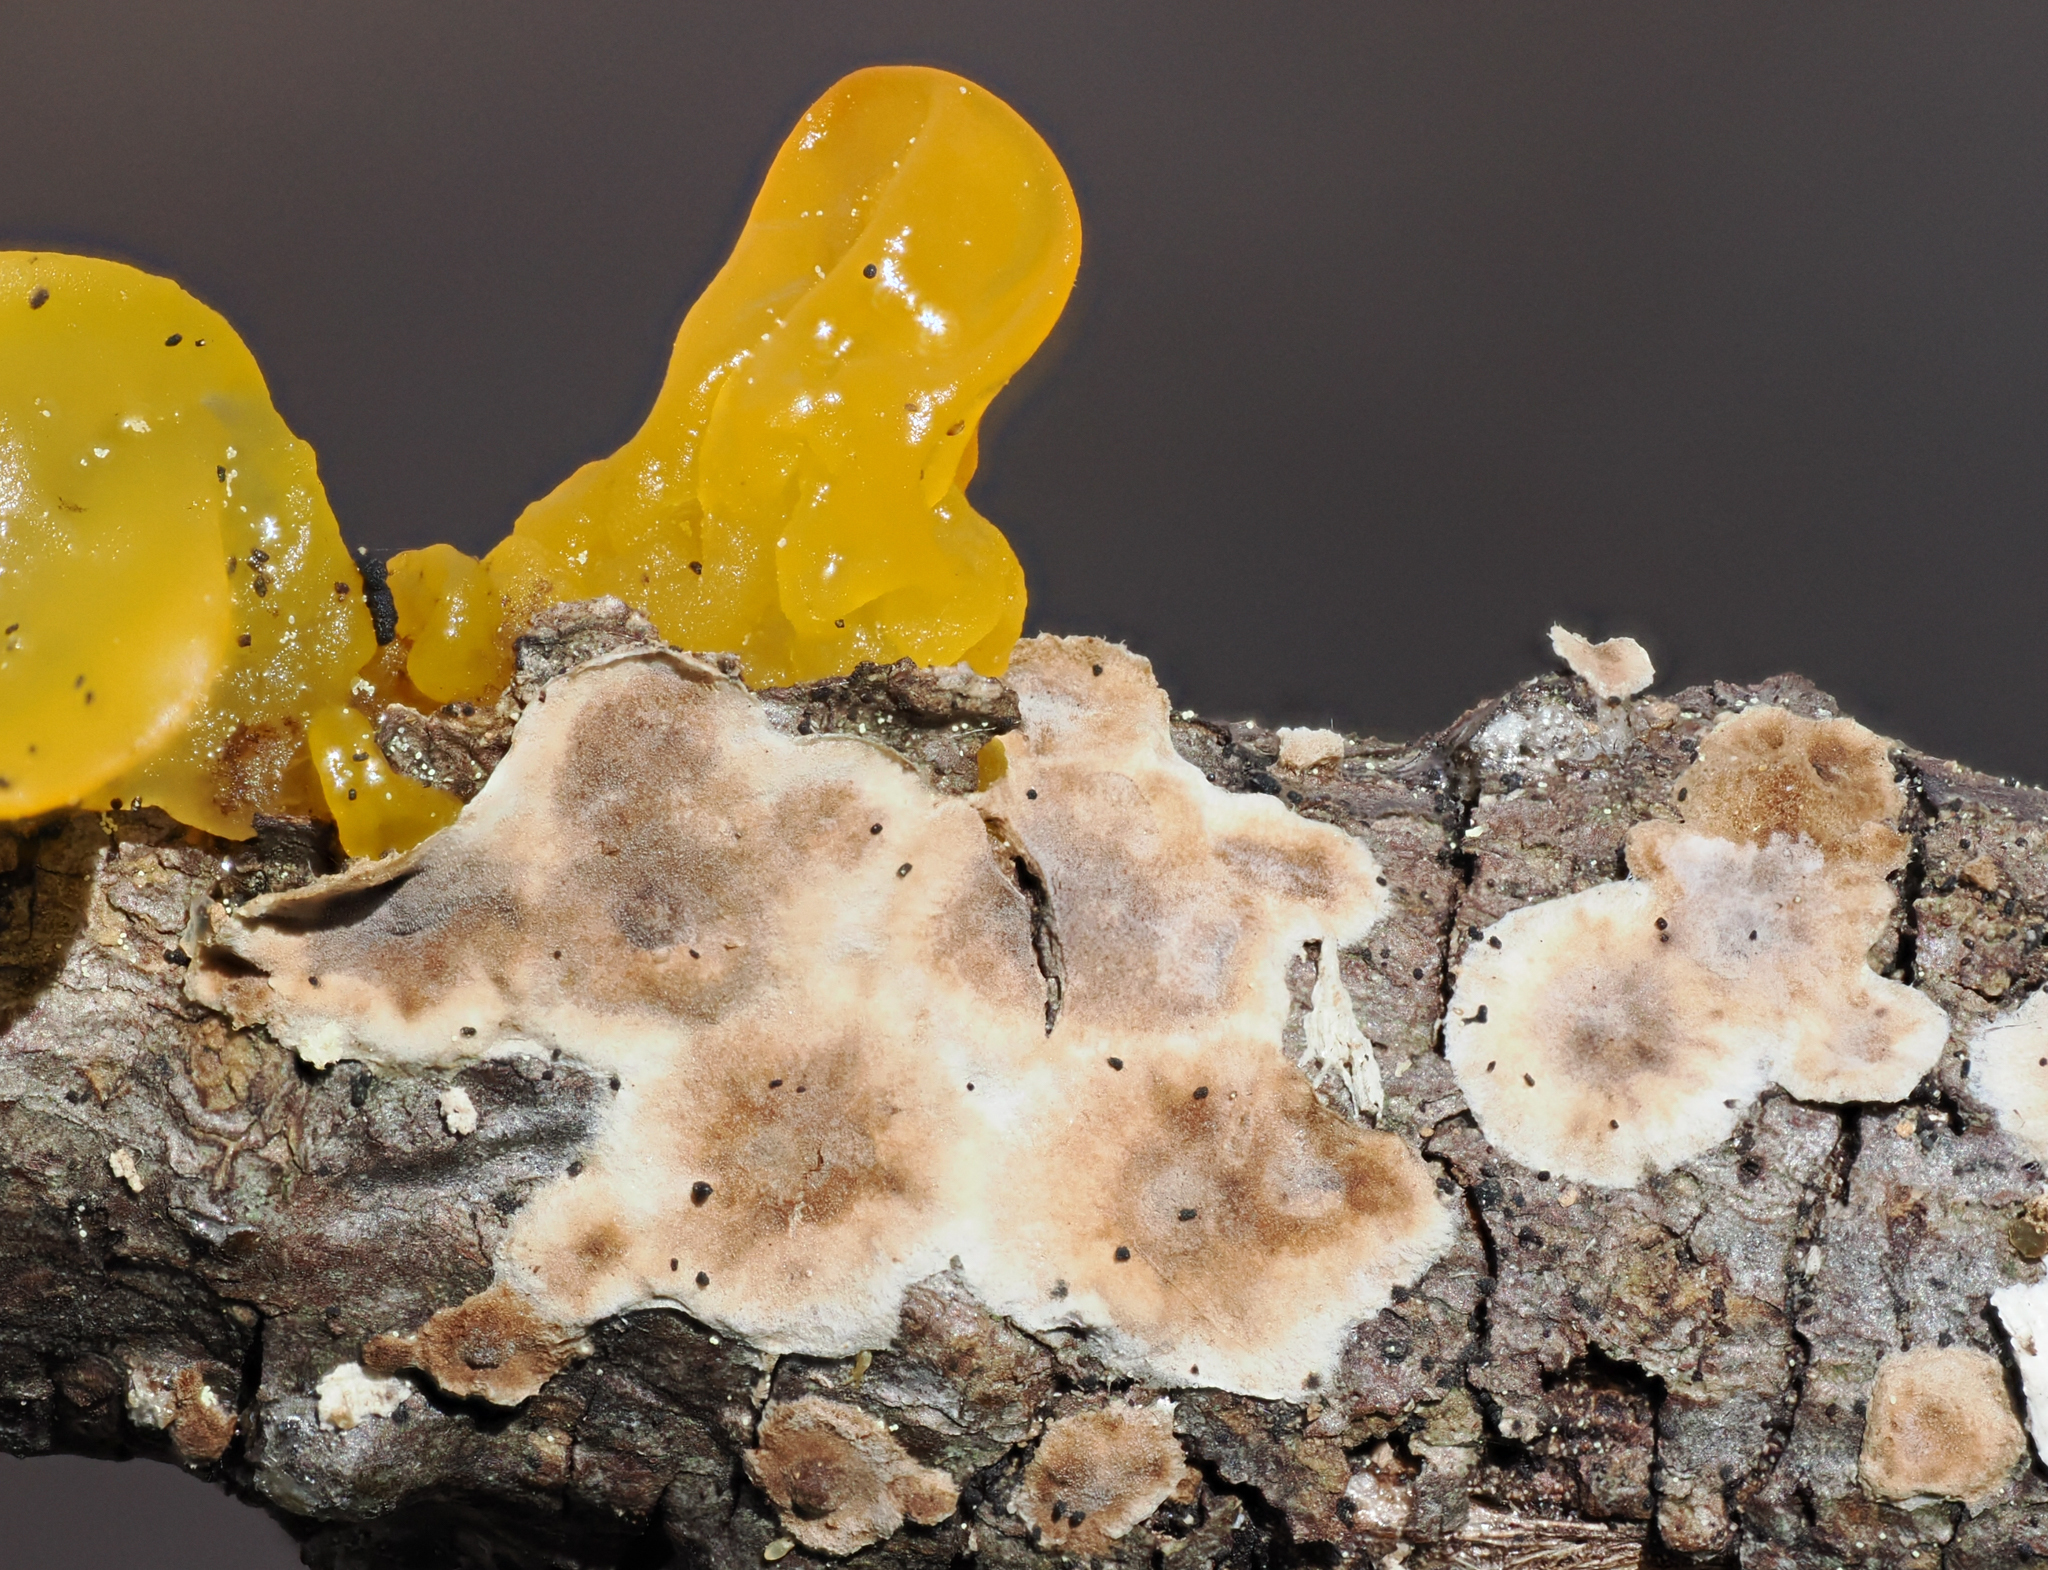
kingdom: Fungi
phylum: Basidiomycota
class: Agaricomycetes
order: Russulales
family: Peniophoraceae
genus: Peniophora
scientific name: Peniophora albobadia
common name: Giraffe spots
